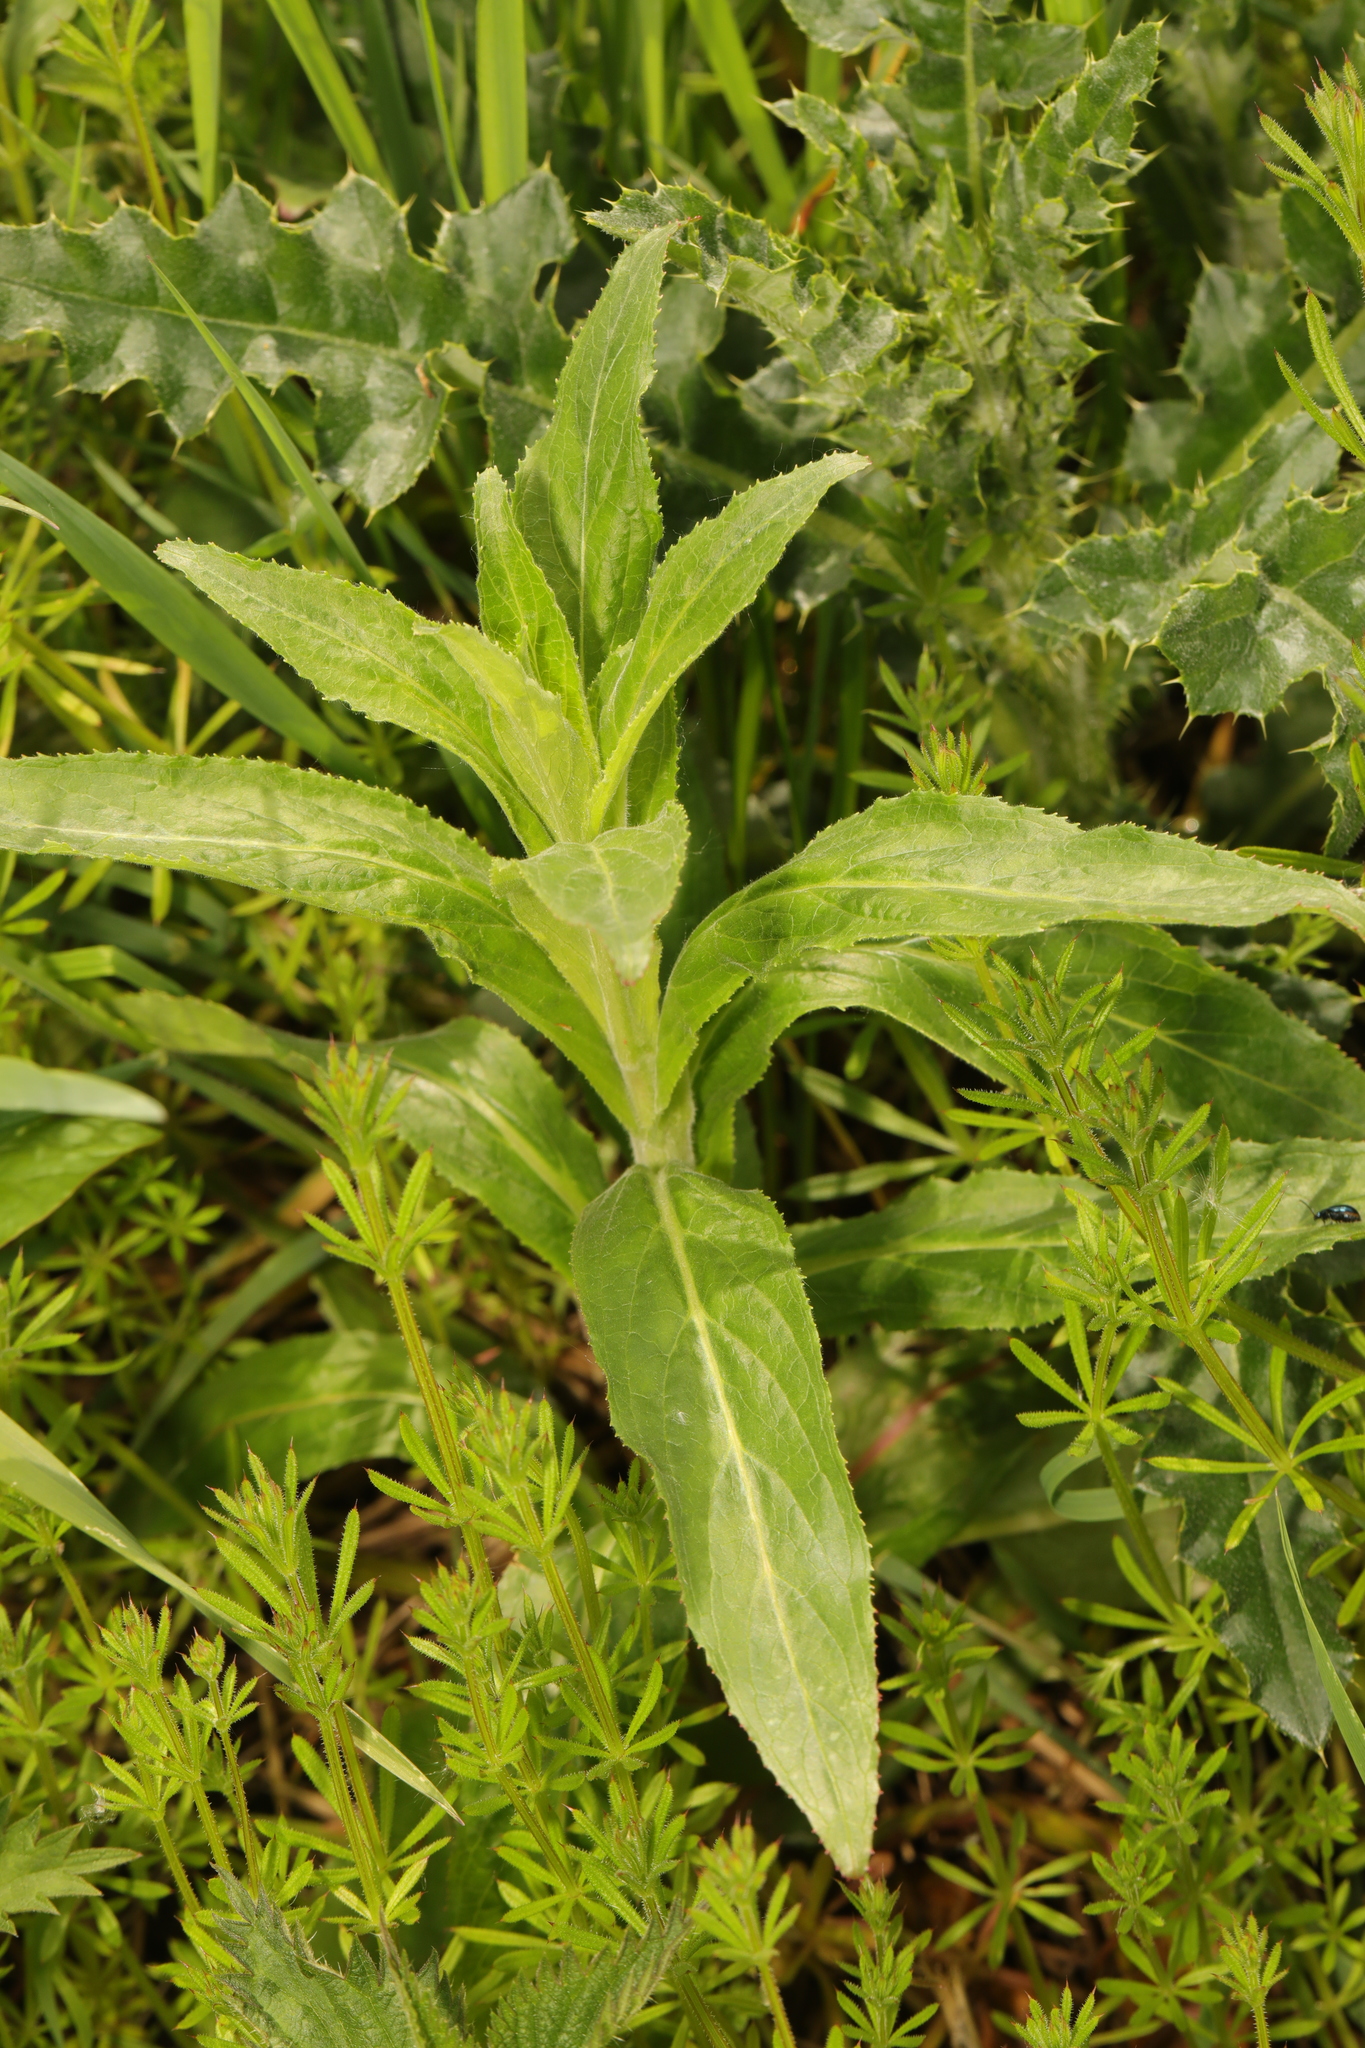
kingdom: Plantae
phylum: Tracheophyta
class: Magnoliopsida
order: Myrtales
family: Onagraceae
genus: Epilobium
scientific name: Epilobium hirsutum
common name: Great willowherb
